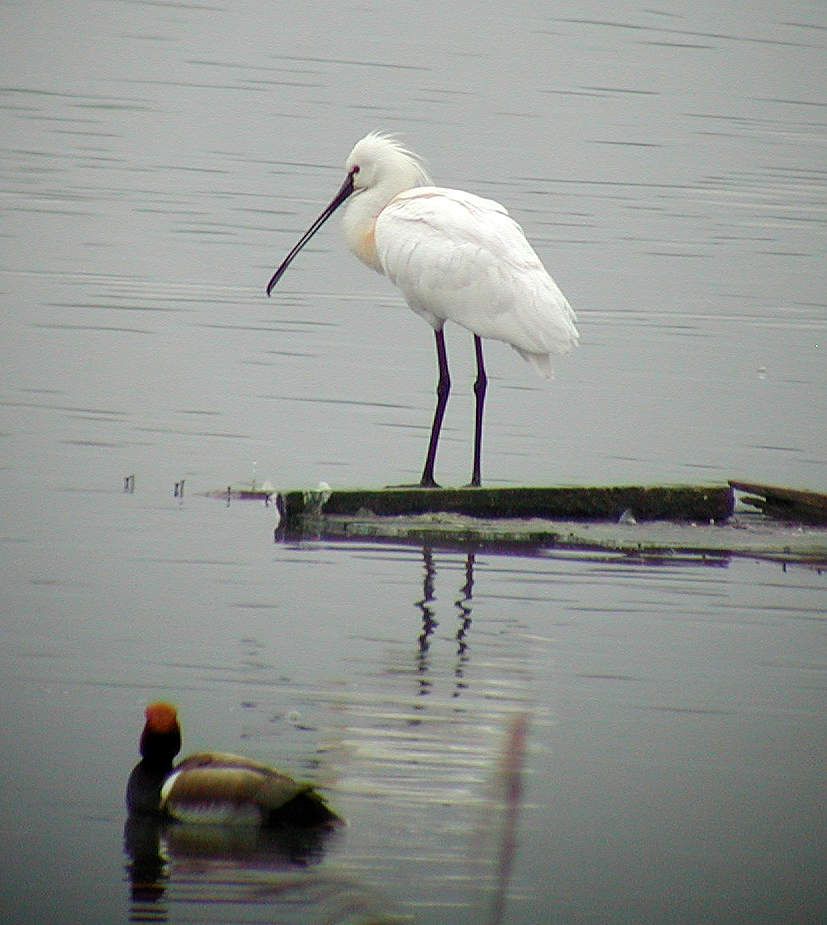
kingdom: Animalia
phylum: Chordata
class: Aves
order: Pelecaniformes
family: Threskiornithidae
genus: Platalea
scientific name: Platalea leucorodia
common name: Eurasian spoonbill
